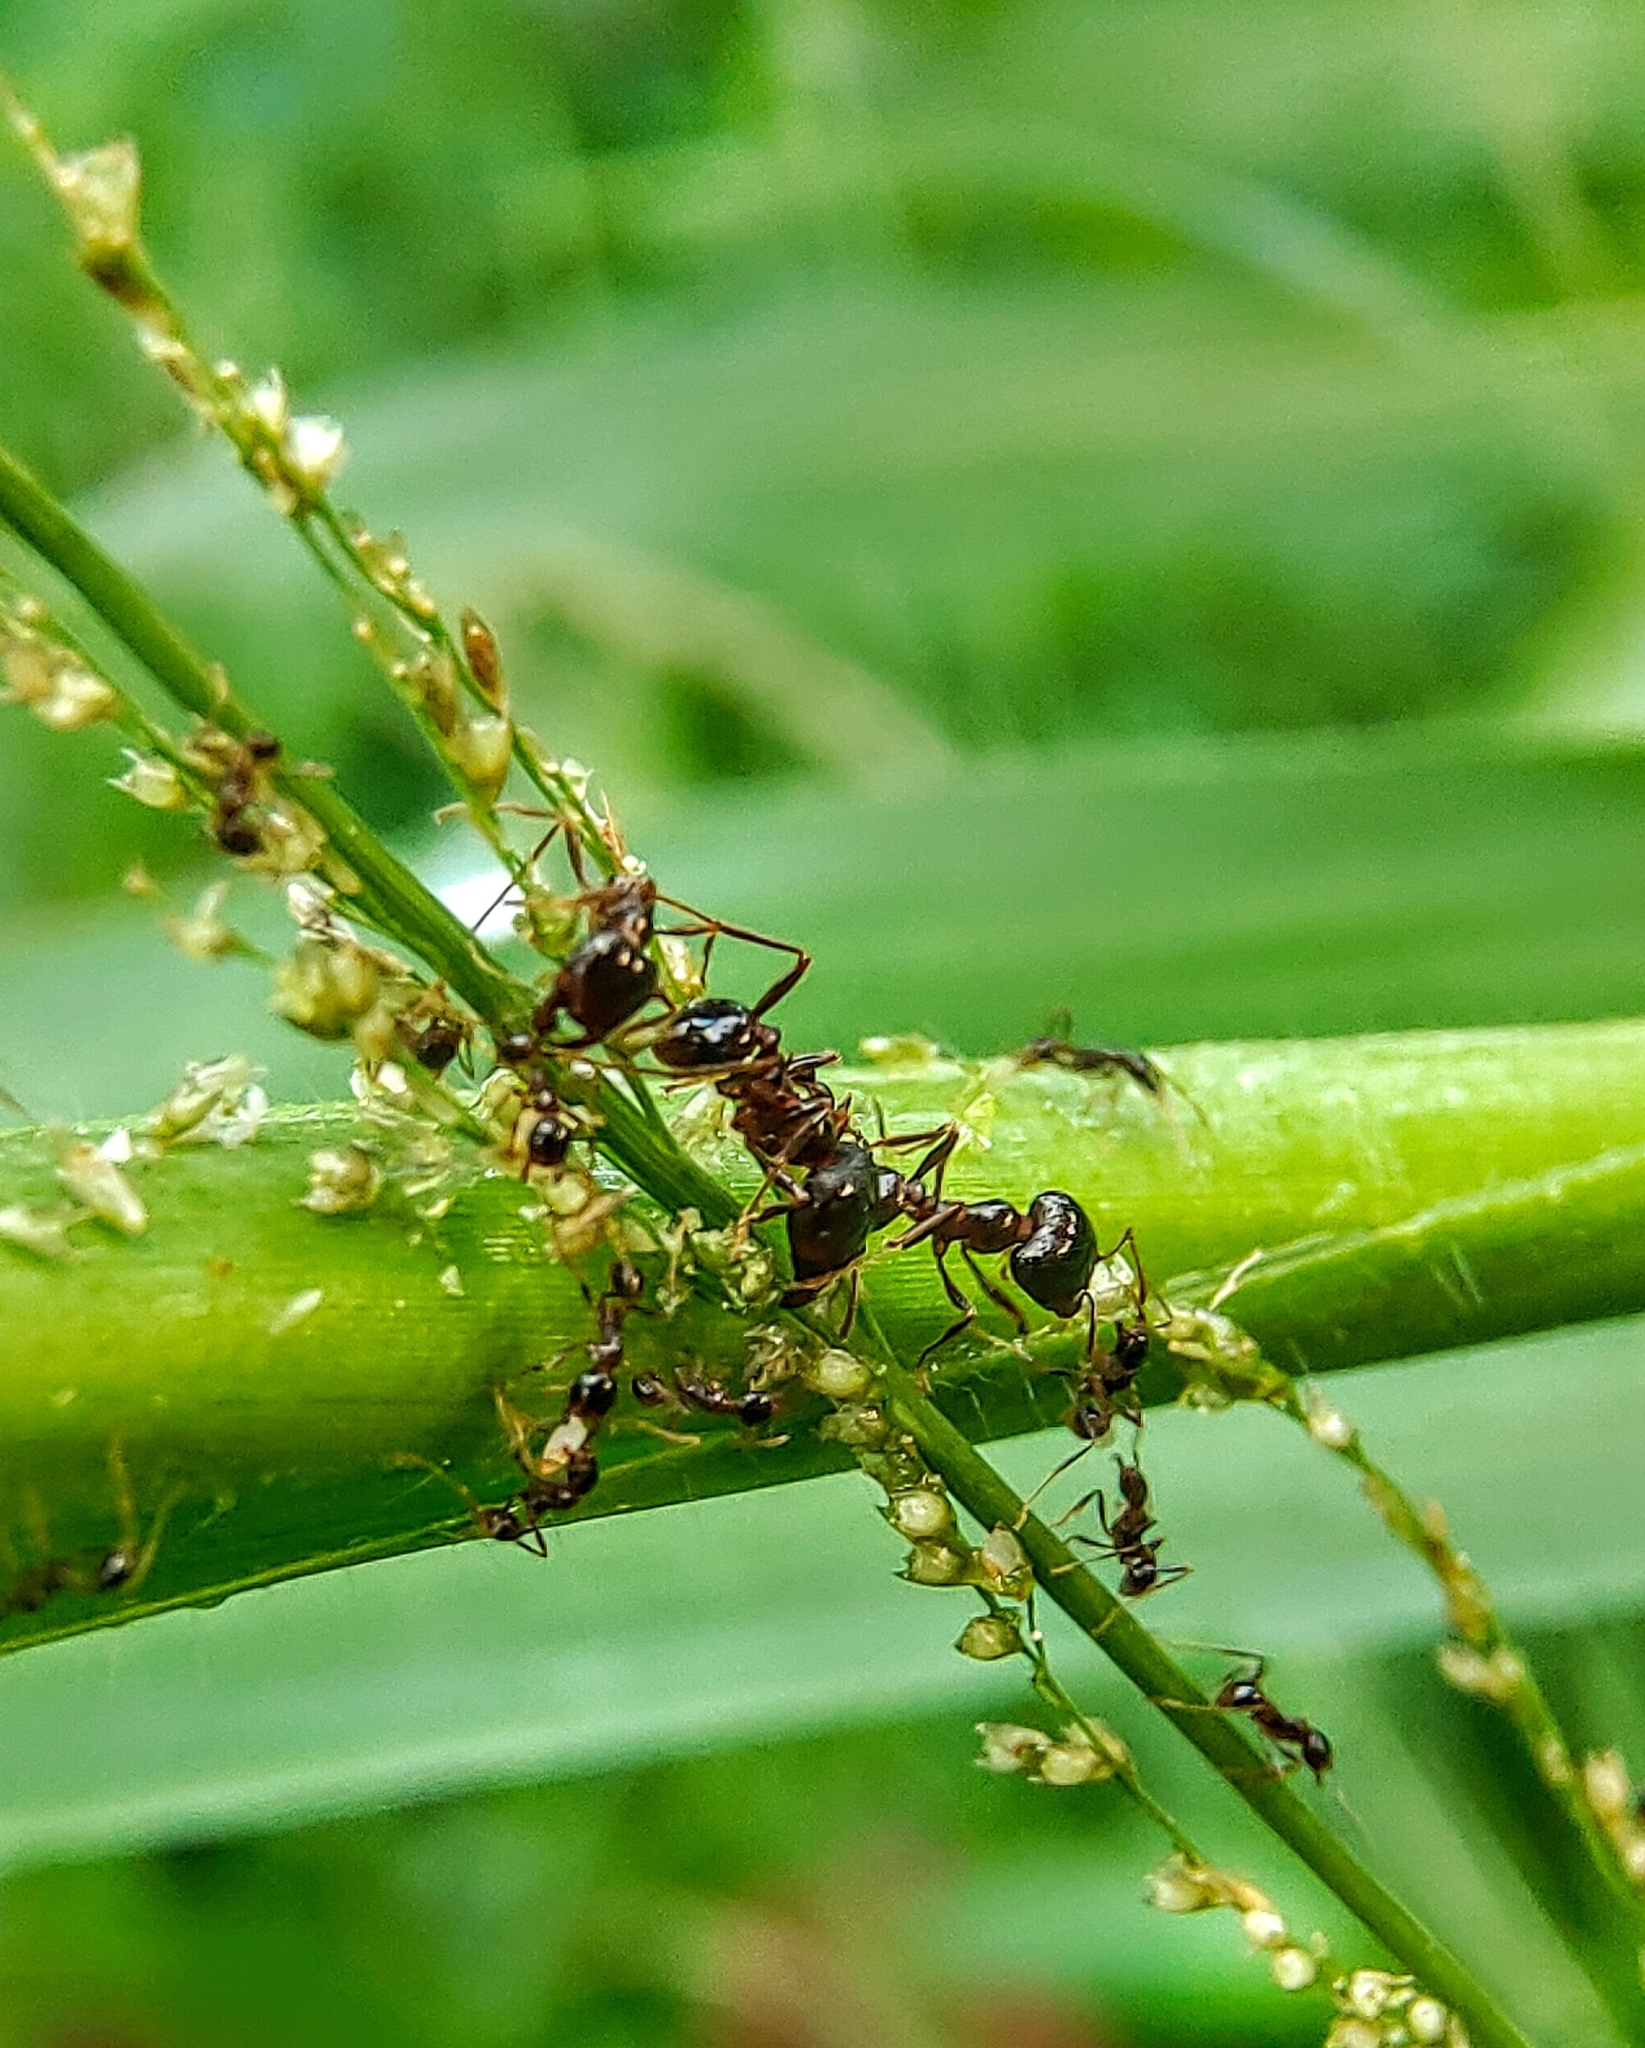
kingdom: Animalia
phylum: Arthropoda
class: Insecta
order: Hymenoptera
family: Formicidae
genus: Pheidologeton
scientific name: Pheidologeton diversus
